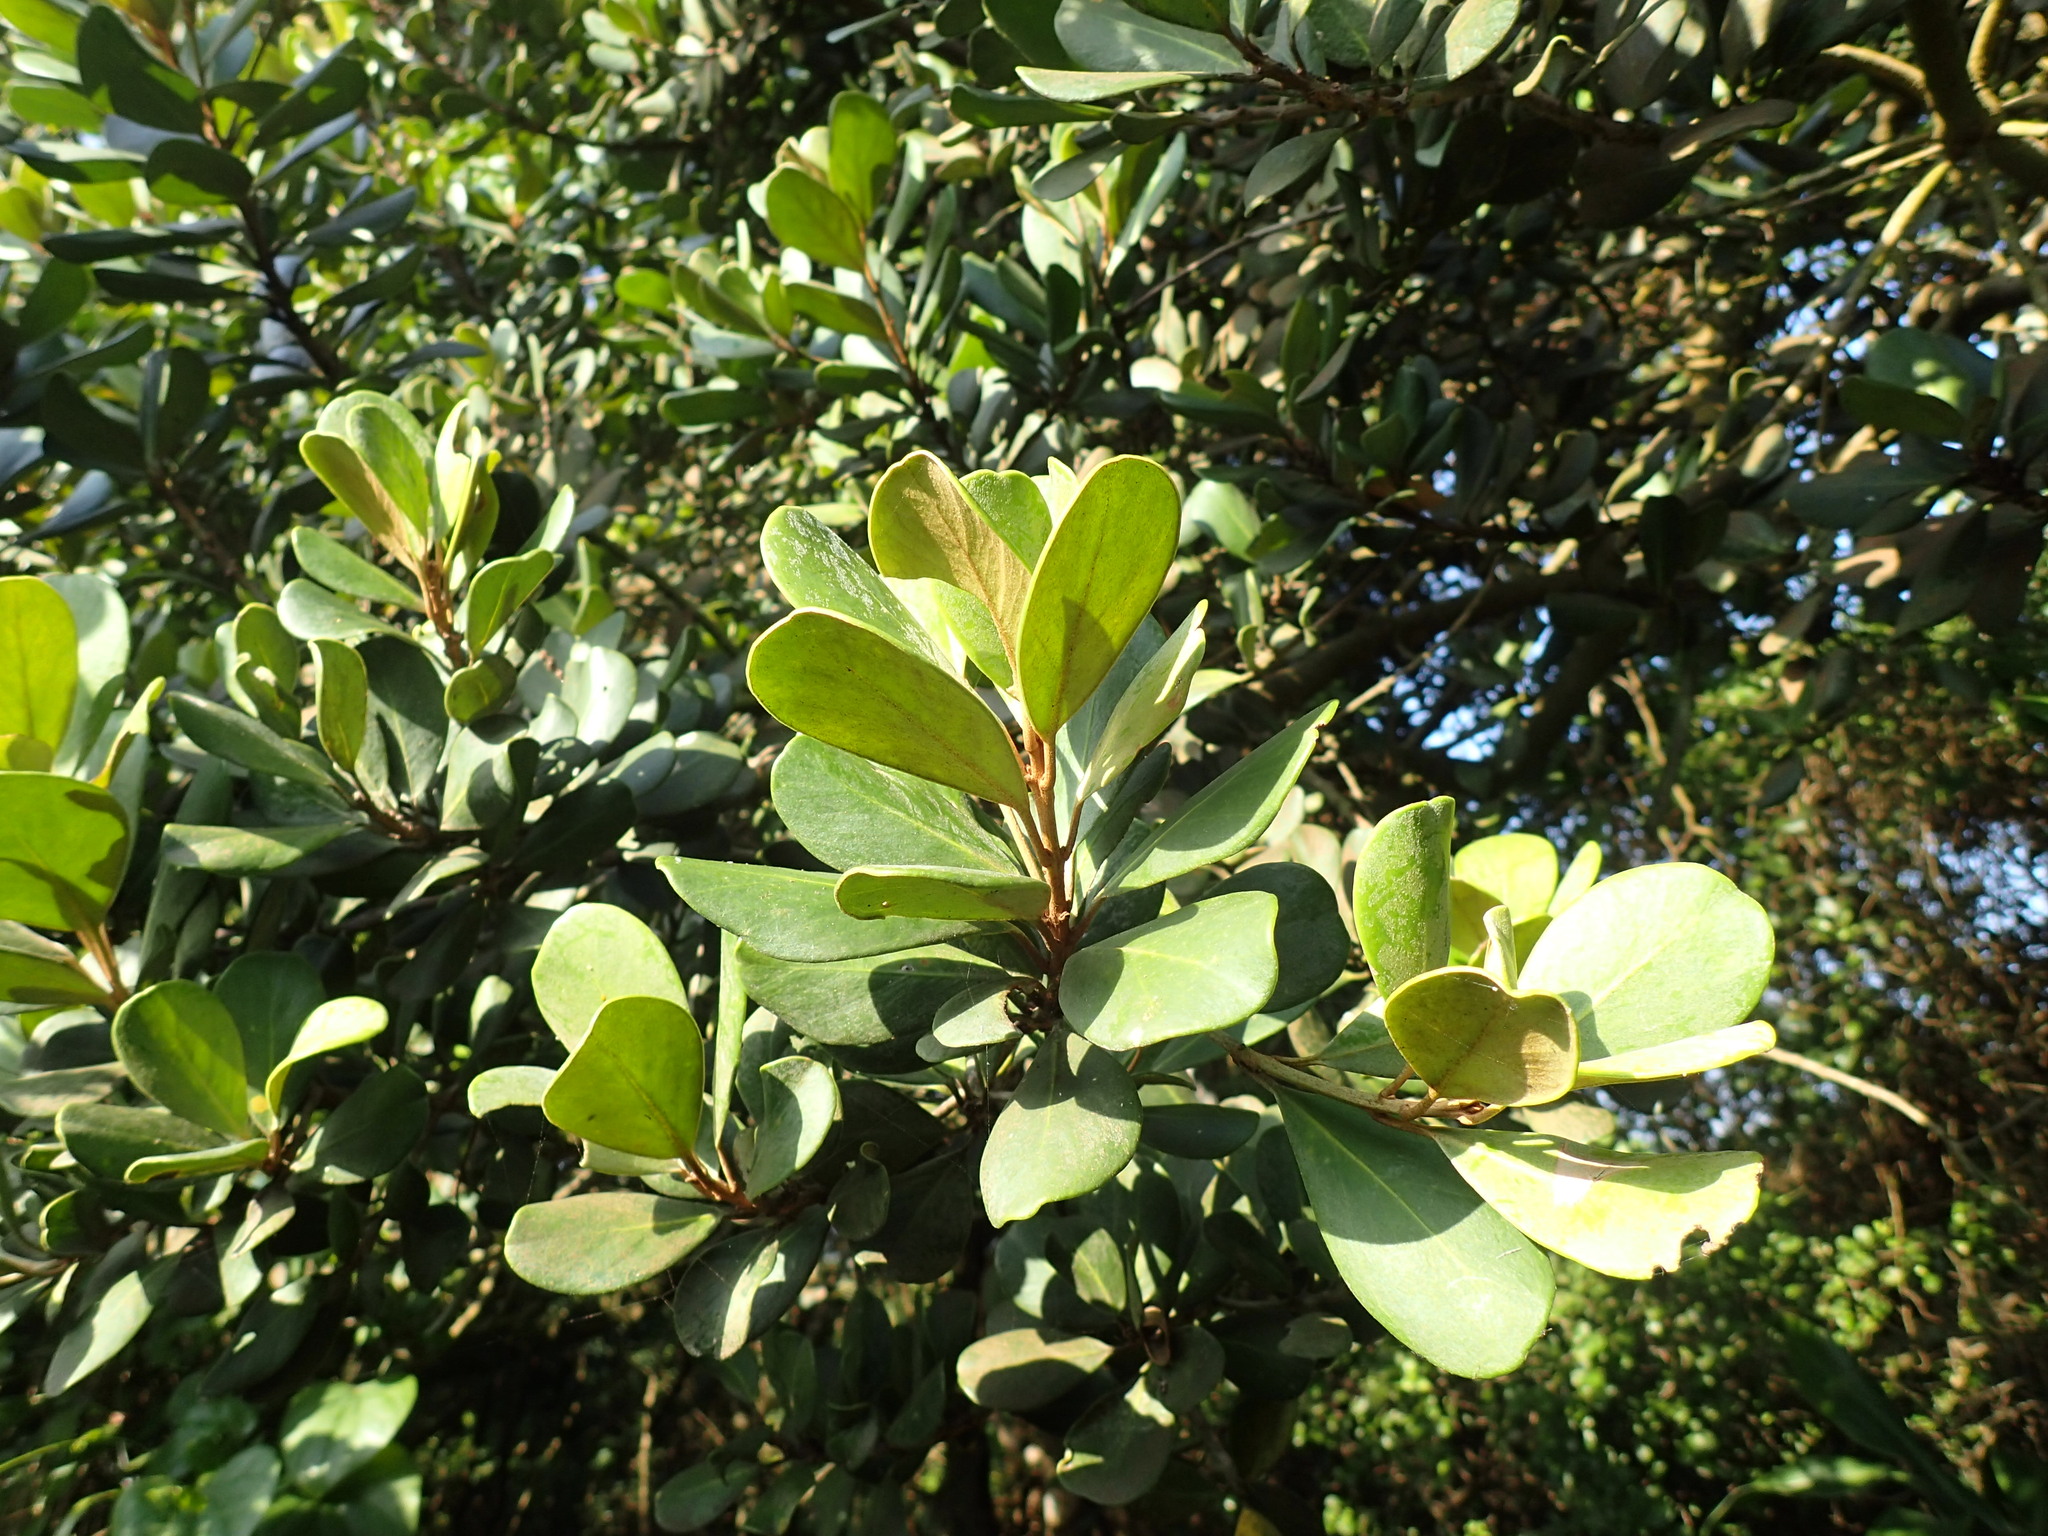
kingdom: Plantae
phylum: Tracheophyta
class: Magnoliopsida
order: Ericales
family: Sapotaceae
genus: Mimusops
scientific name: Mimusops caffra
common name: Coastal red milkwood
